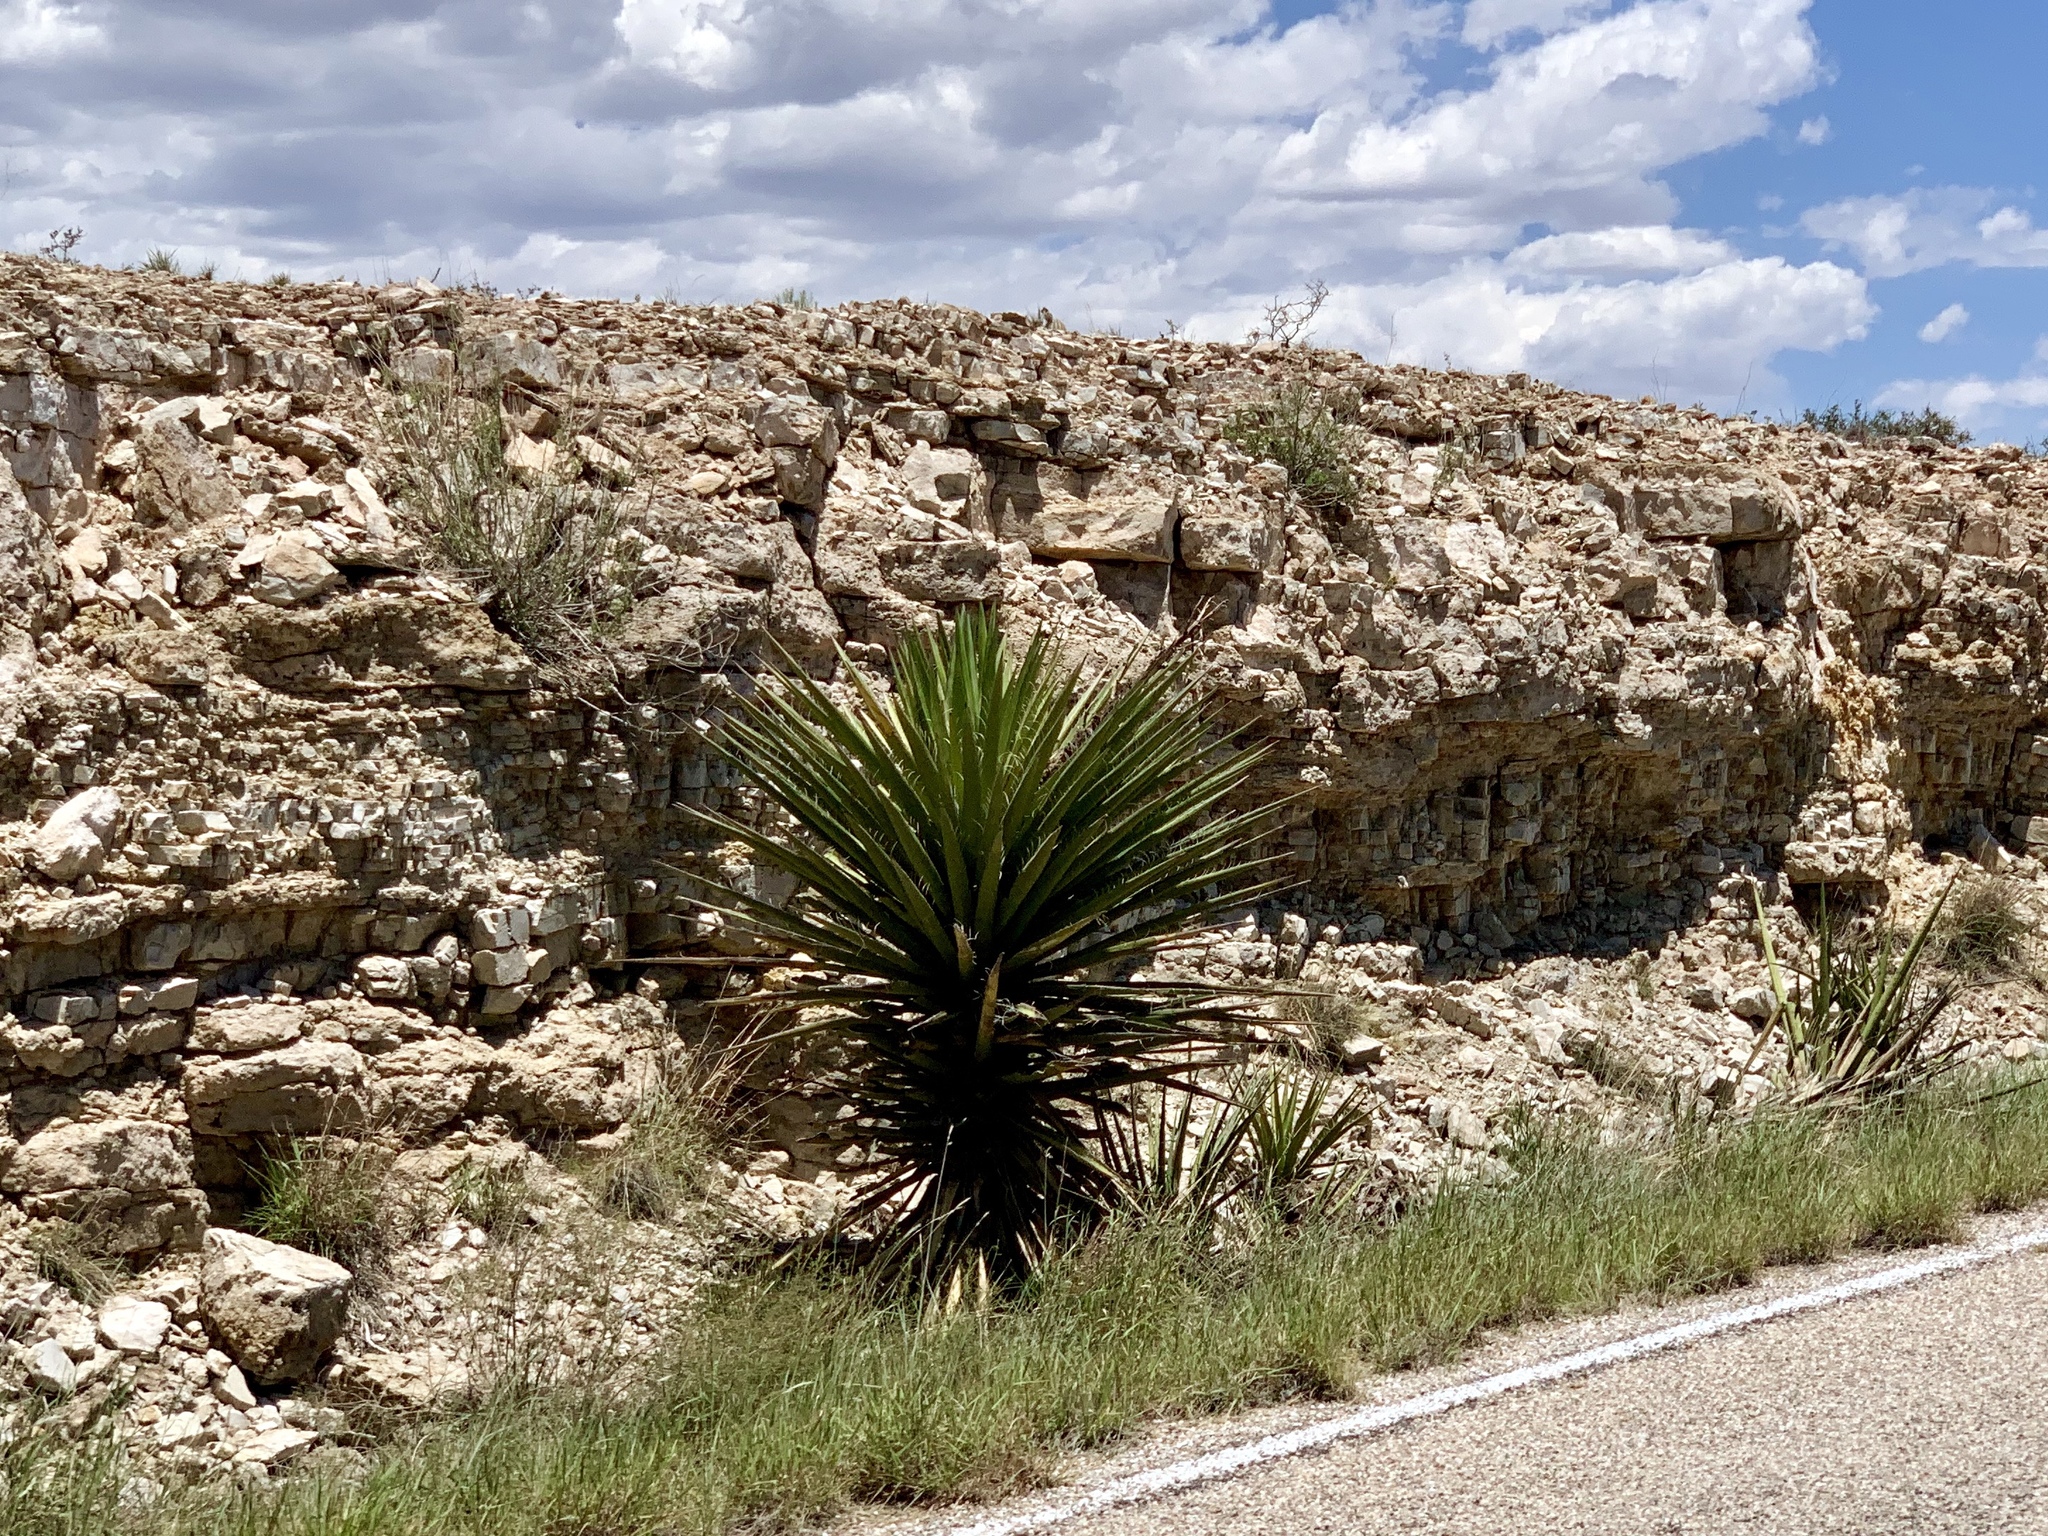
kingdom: Plantae
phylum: Tracheophyta
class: Liliopsida
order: Asparagales
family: Asparagaceae
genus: Yucca
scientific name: Yucca treculiana
